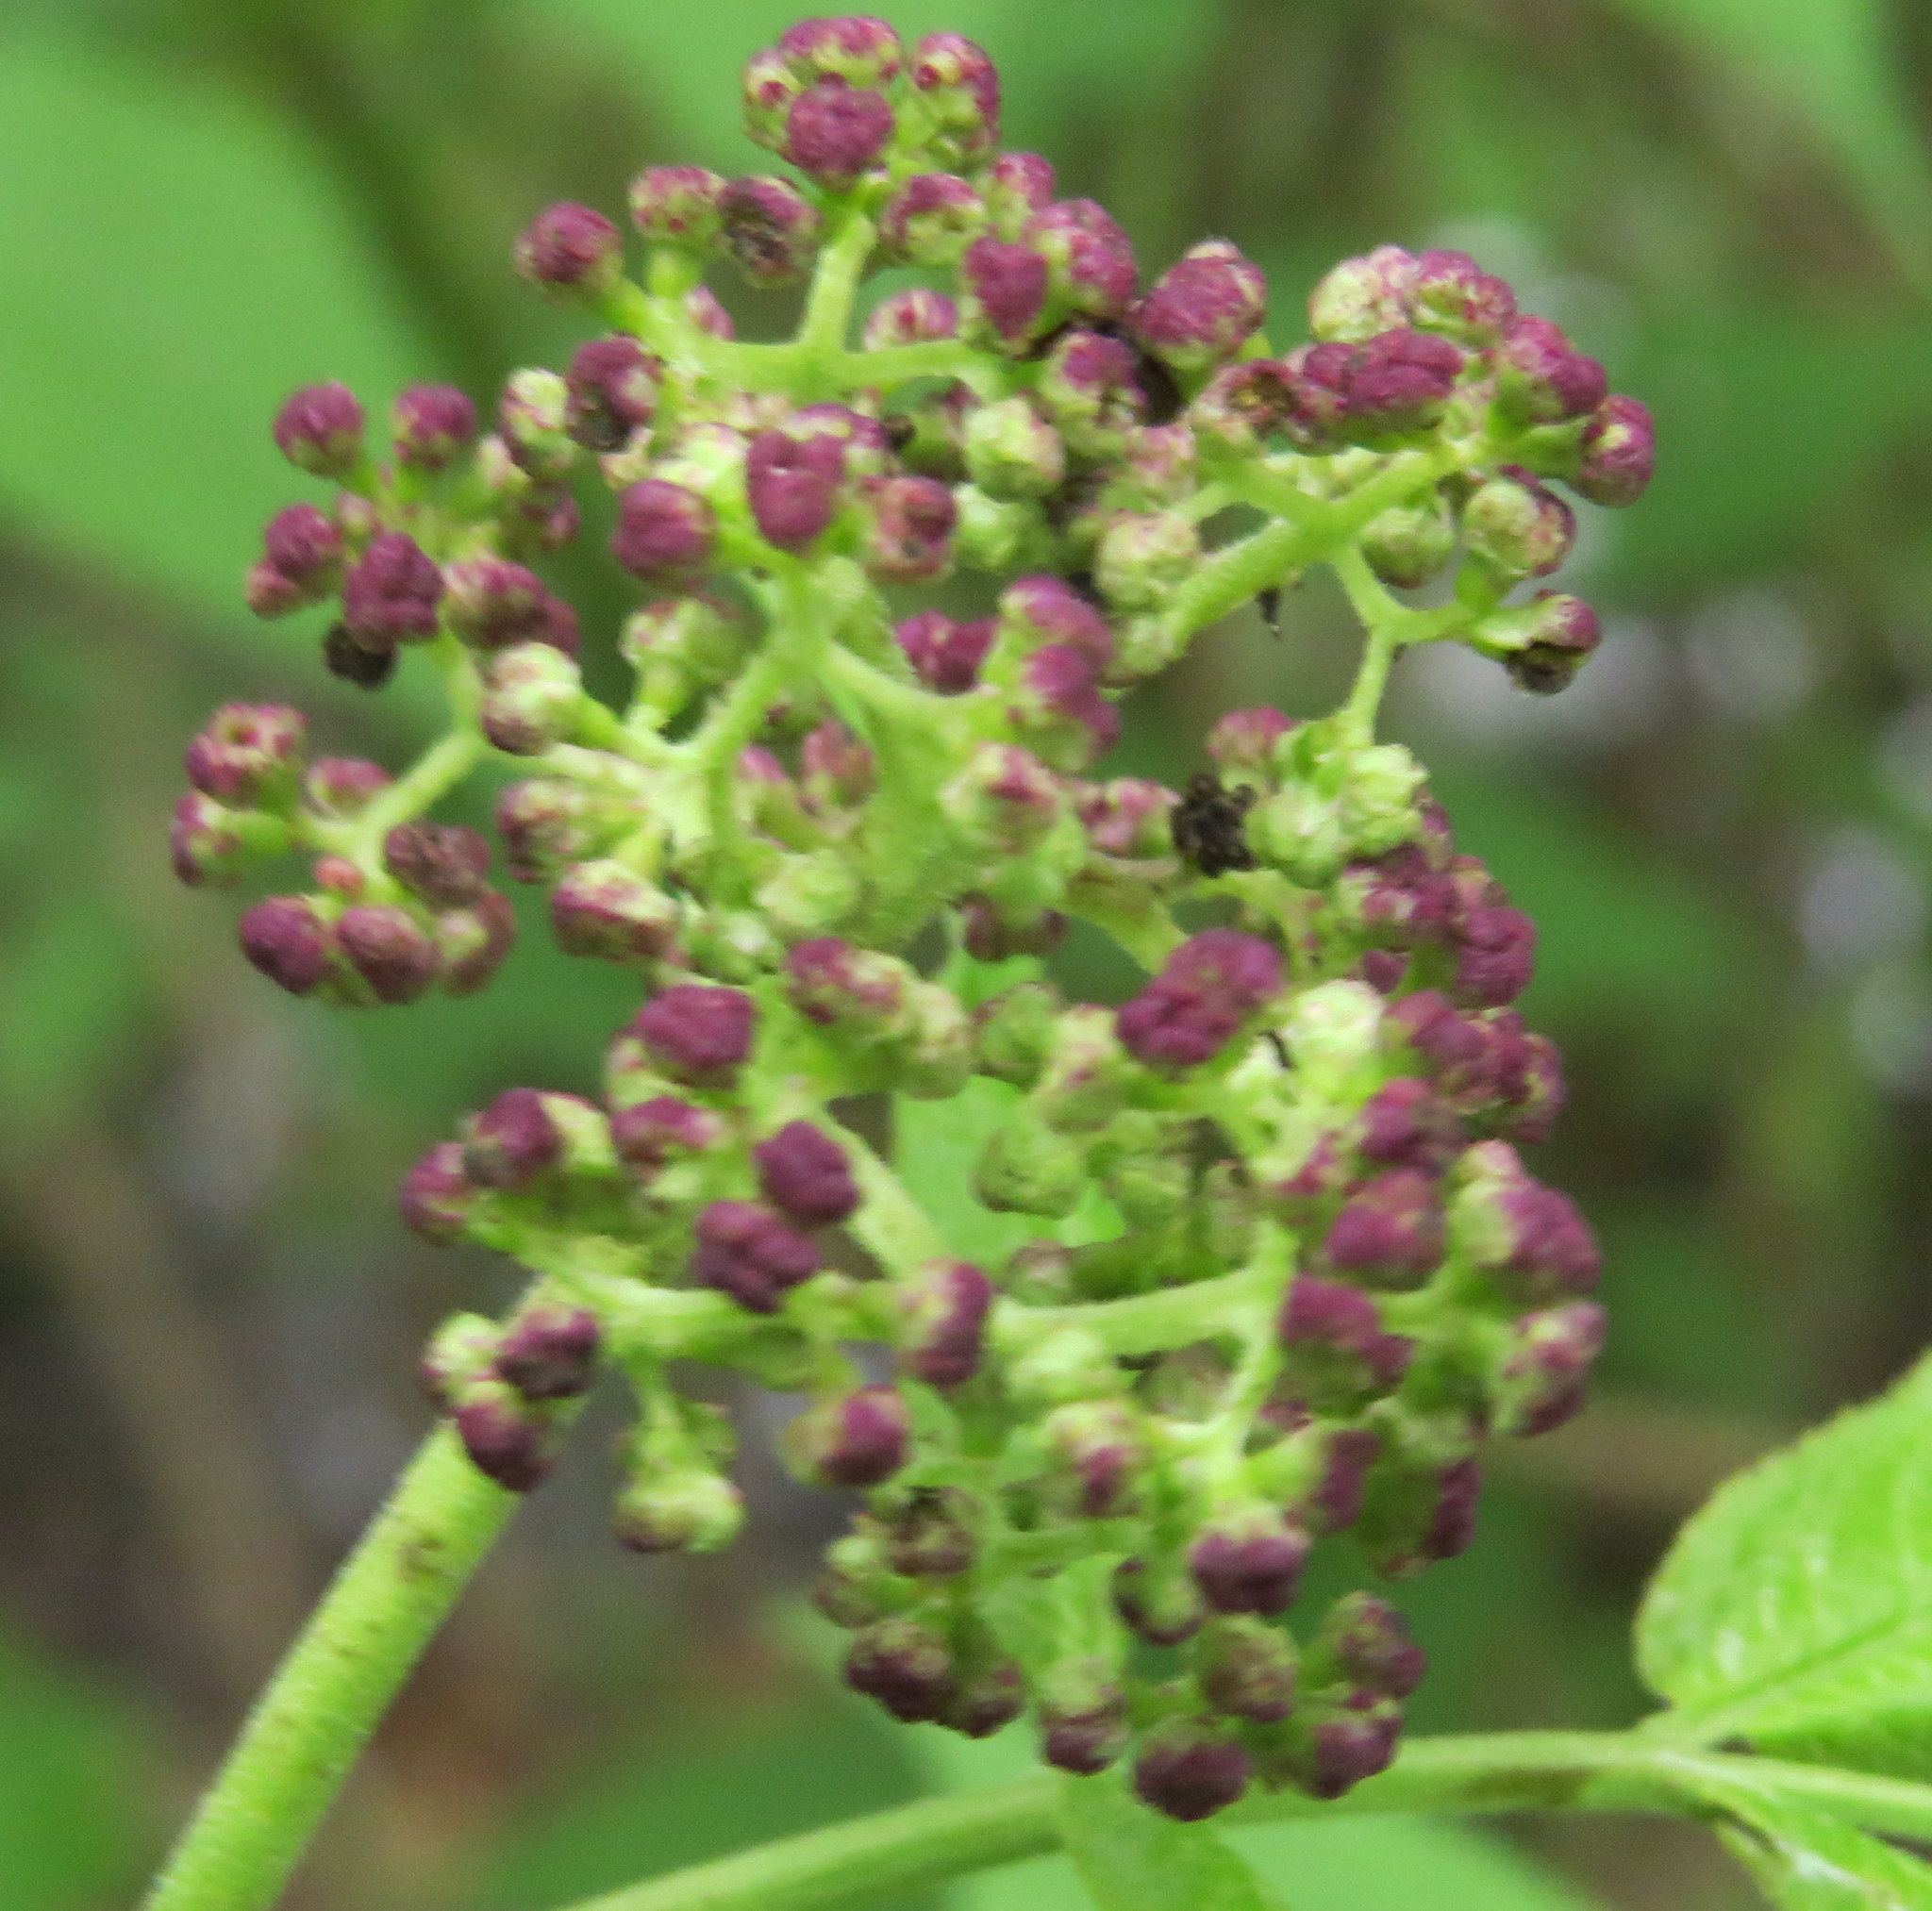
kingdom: Plantae
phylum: Tracheophyta
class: Magnoliopsida
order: Dipsacales
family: Viburnaceae
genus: Sambucus
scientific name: Sambucus racemosa
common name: Red-berried elder
